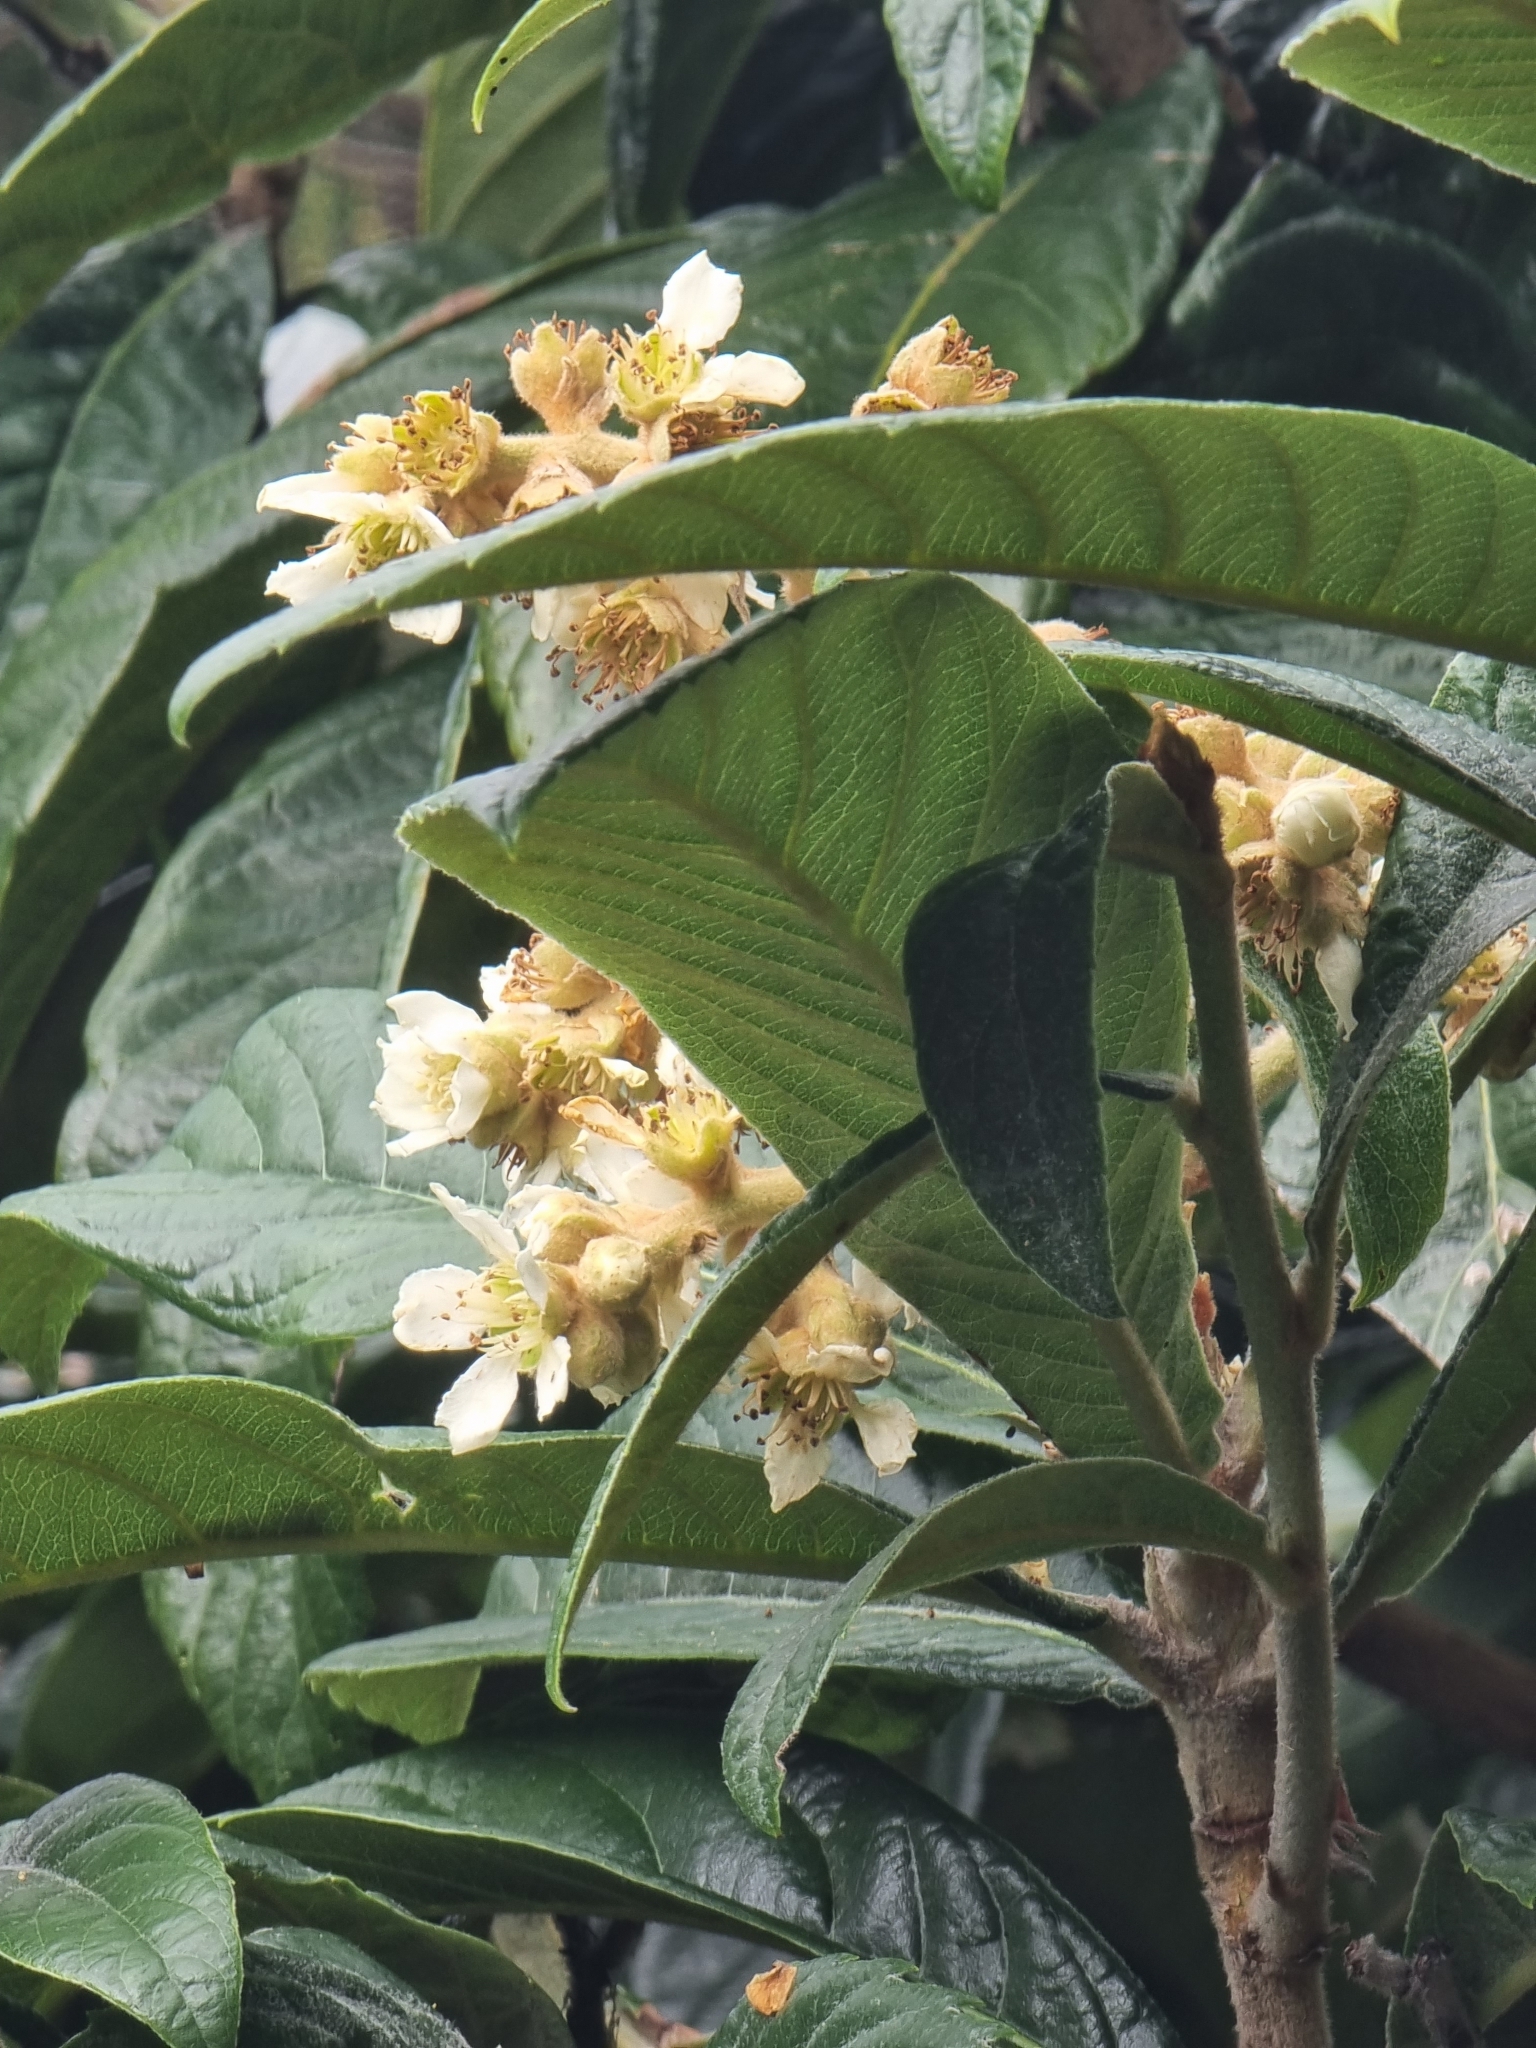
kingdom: Plantae
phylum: Tracheophyta
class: Magnoliopsida
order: Rosales
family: Rosaceae
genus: Rhaphiolepis
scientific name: Rhaphiolepis bibas
